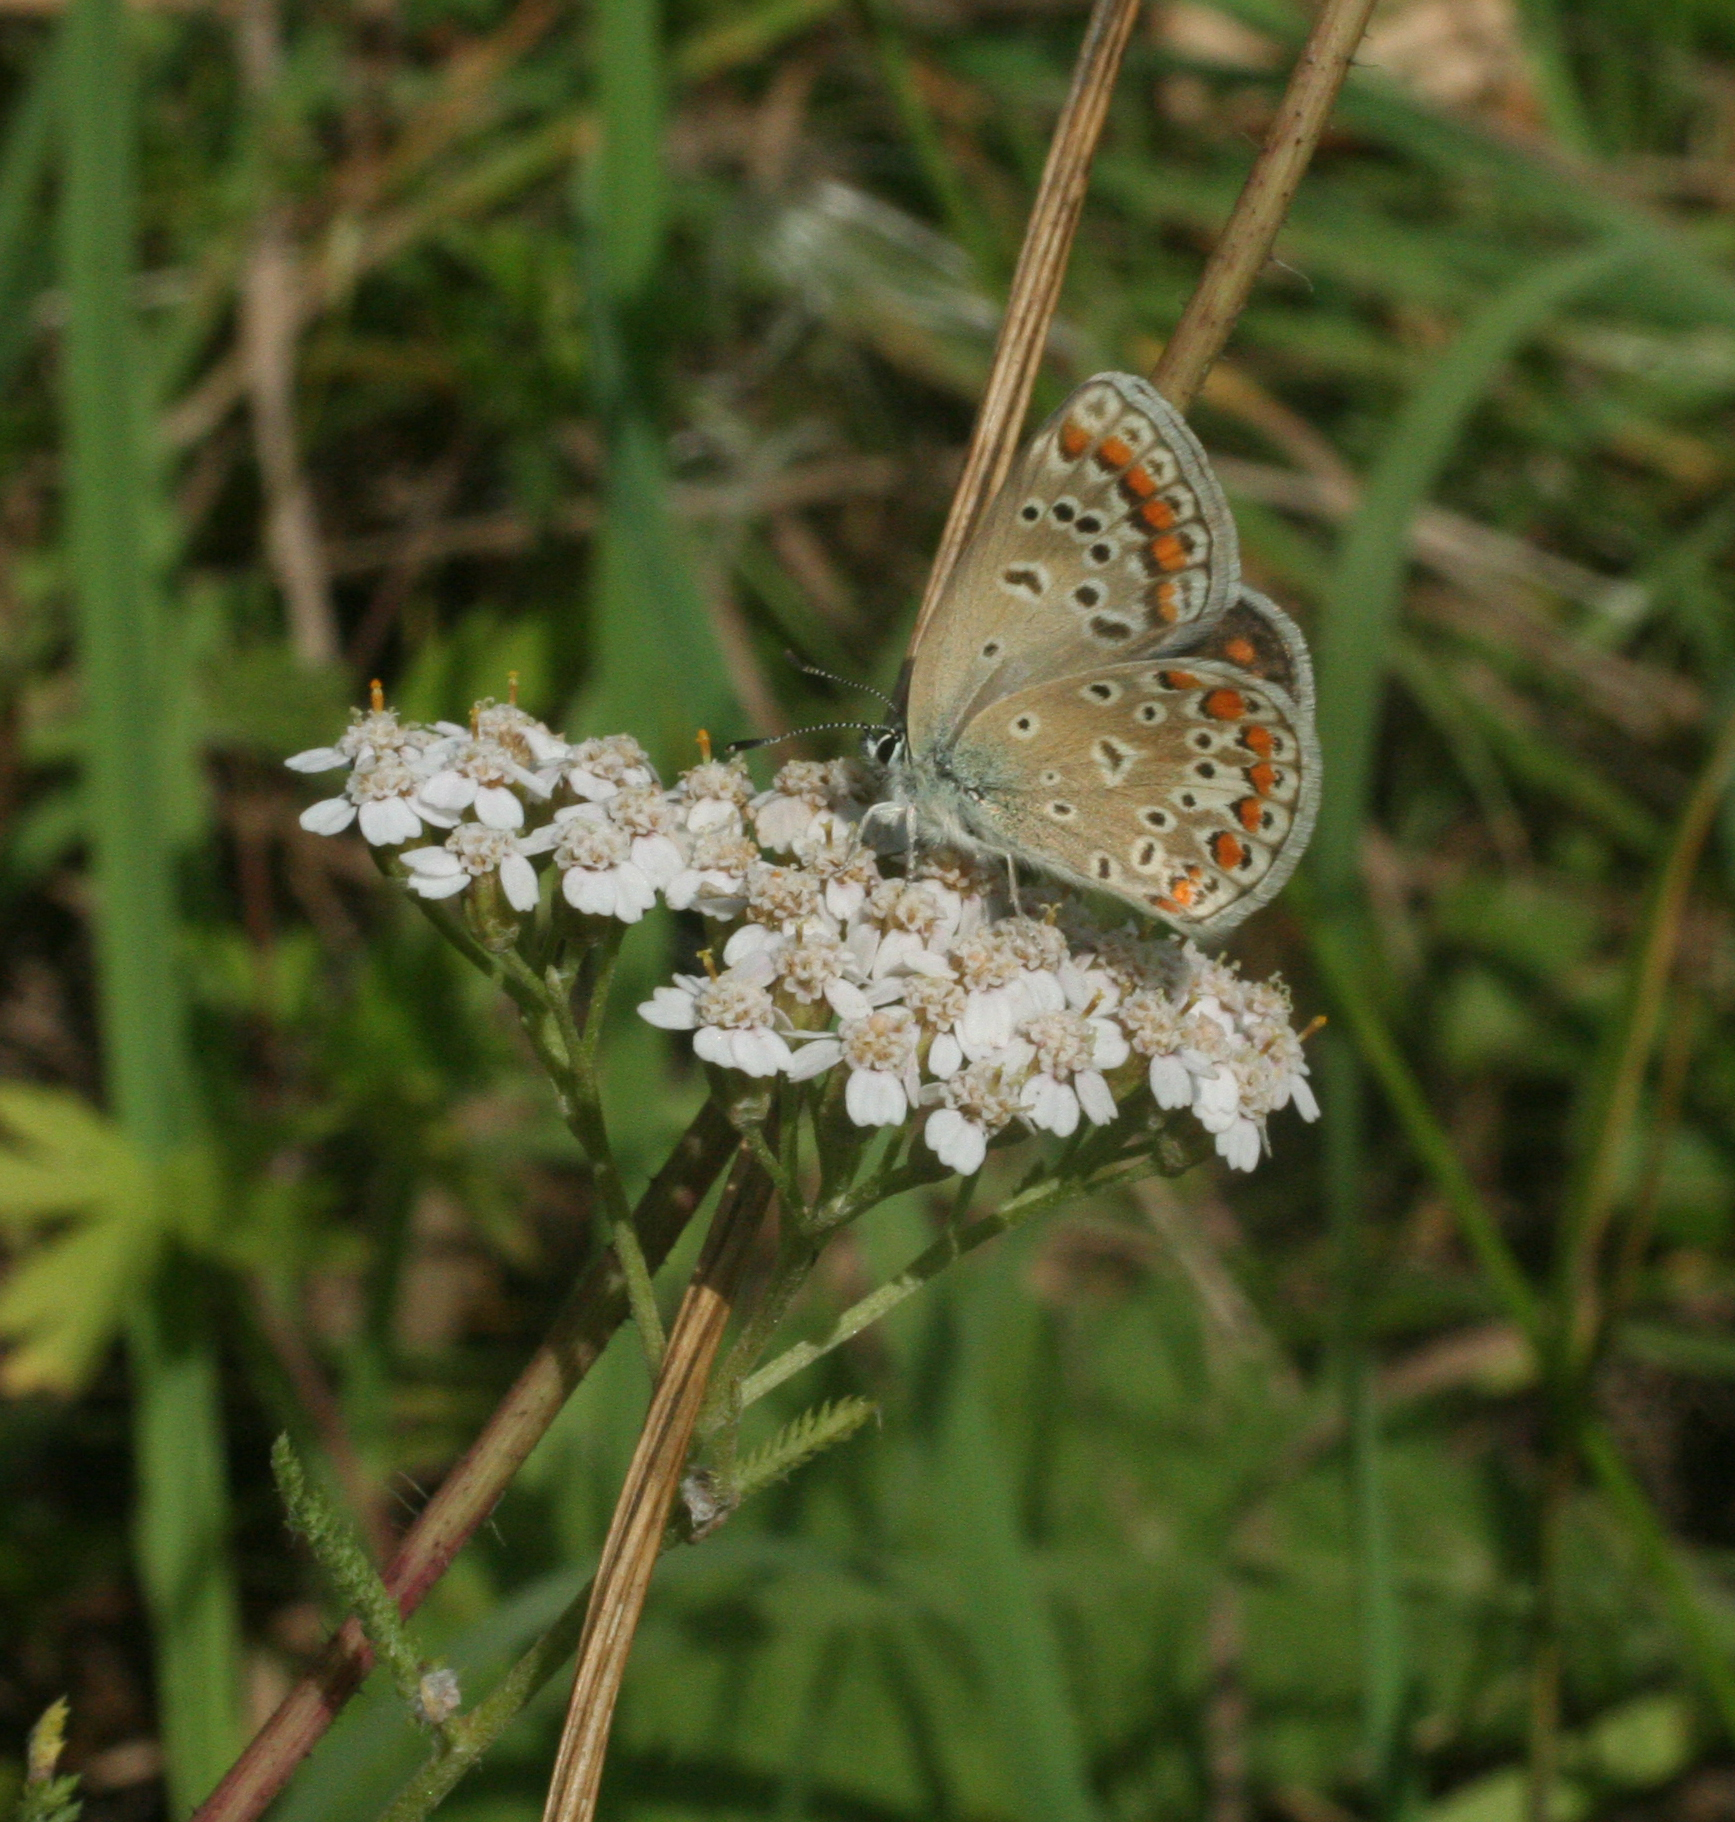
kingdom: Plantae
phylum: Tracheophyta
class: Magnoliopsida
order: Asterales
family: Asteraceae
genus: Achillea
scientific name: Achillea millefolium
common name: Yarrow
